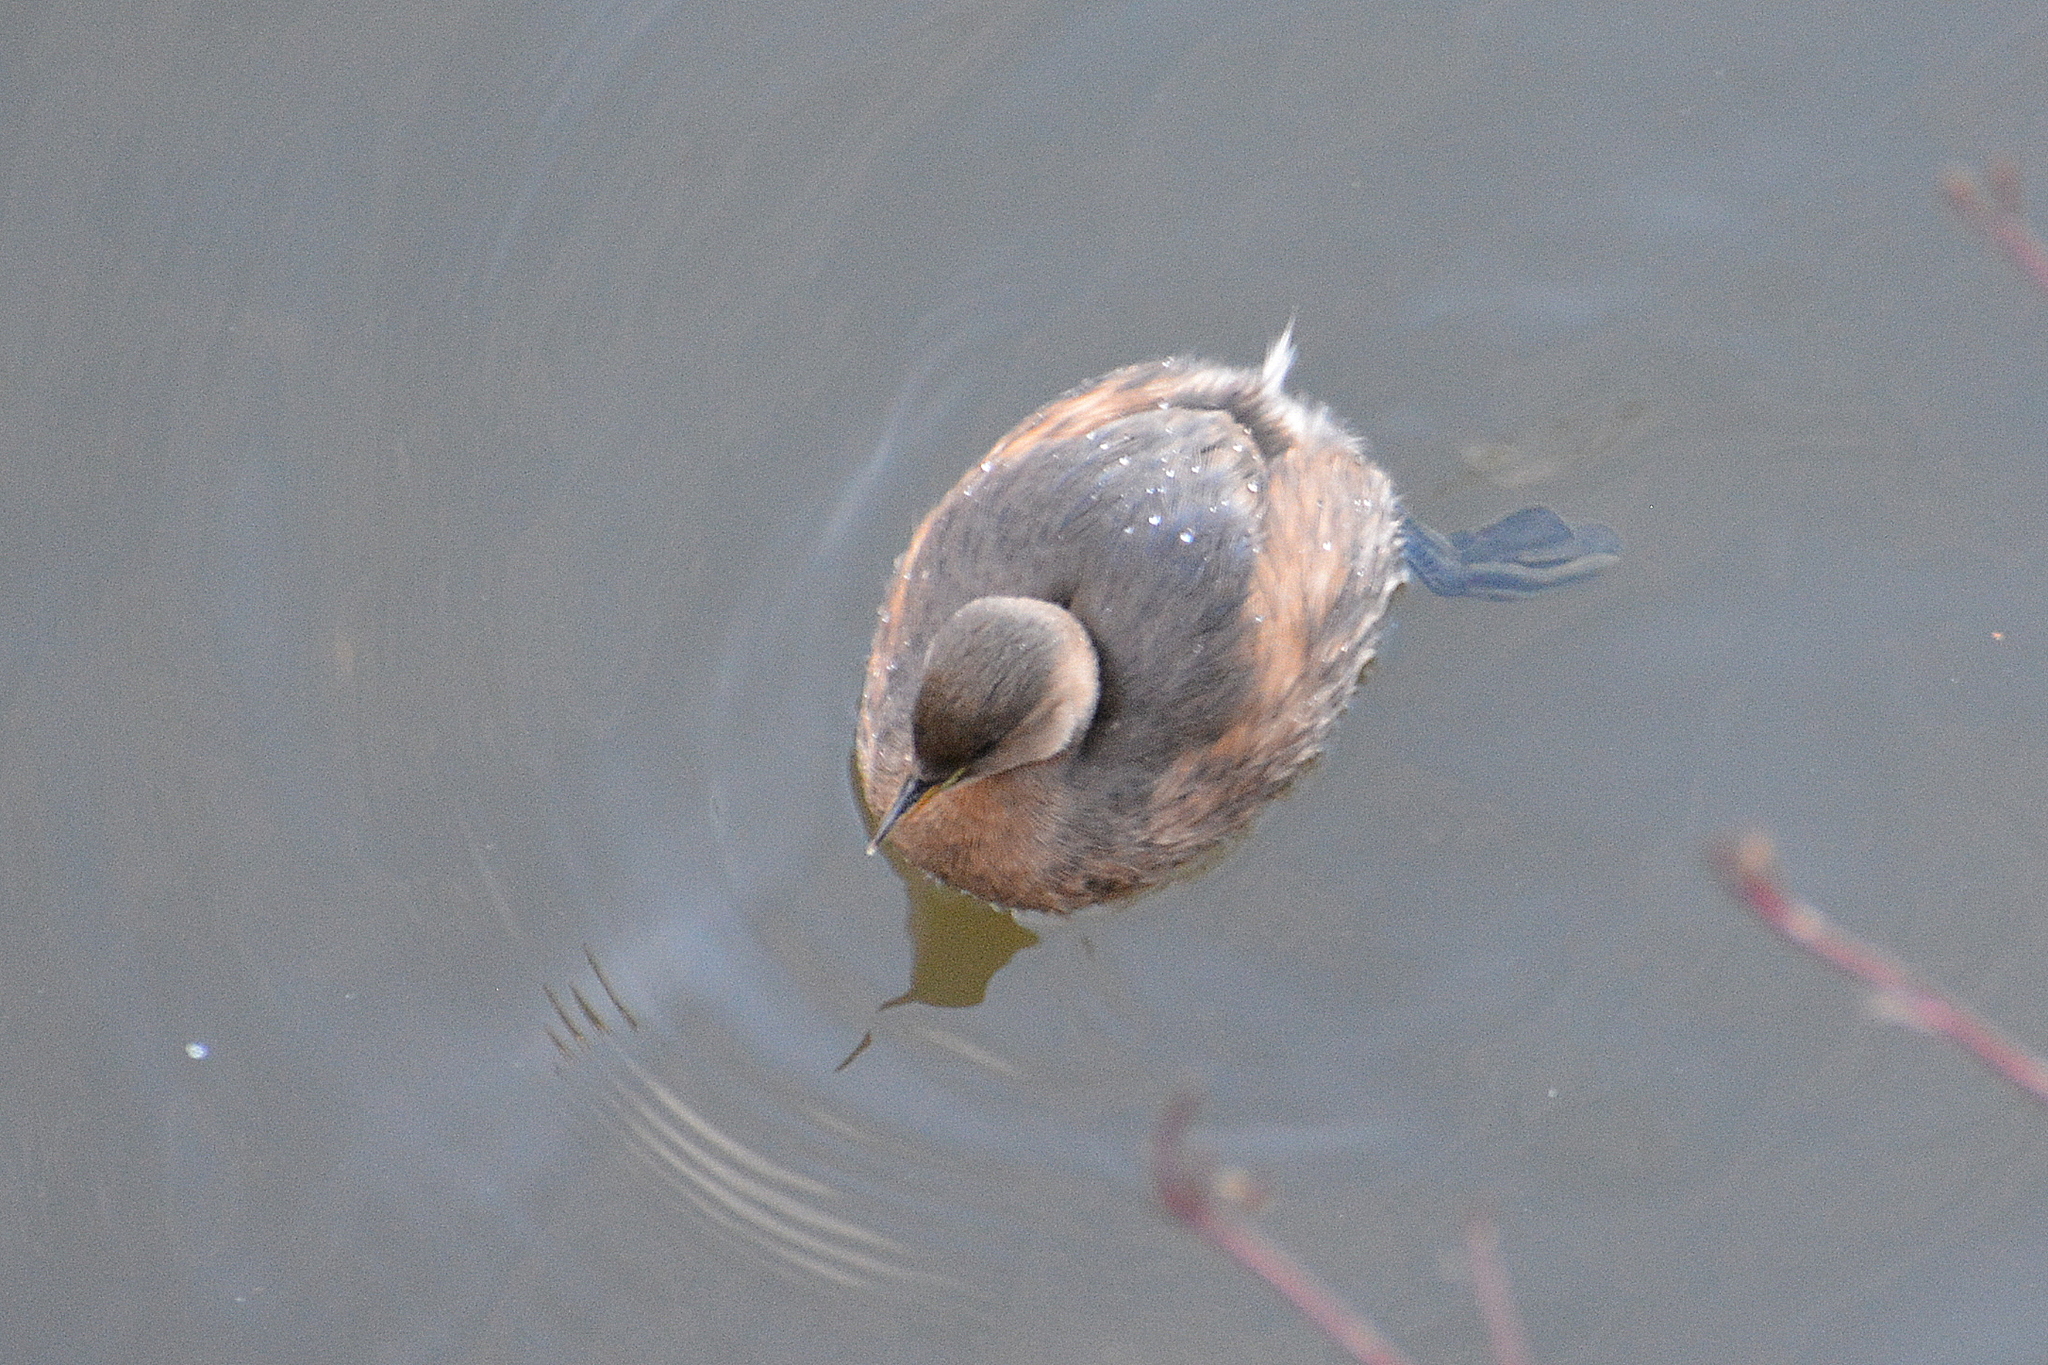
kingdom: Animalia
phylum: Chordata
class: Aves
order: Podicipediformes
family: Podicipedidae
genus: Tachybaptus
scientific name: Tachybaptus ruficollis
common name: Little grebe
